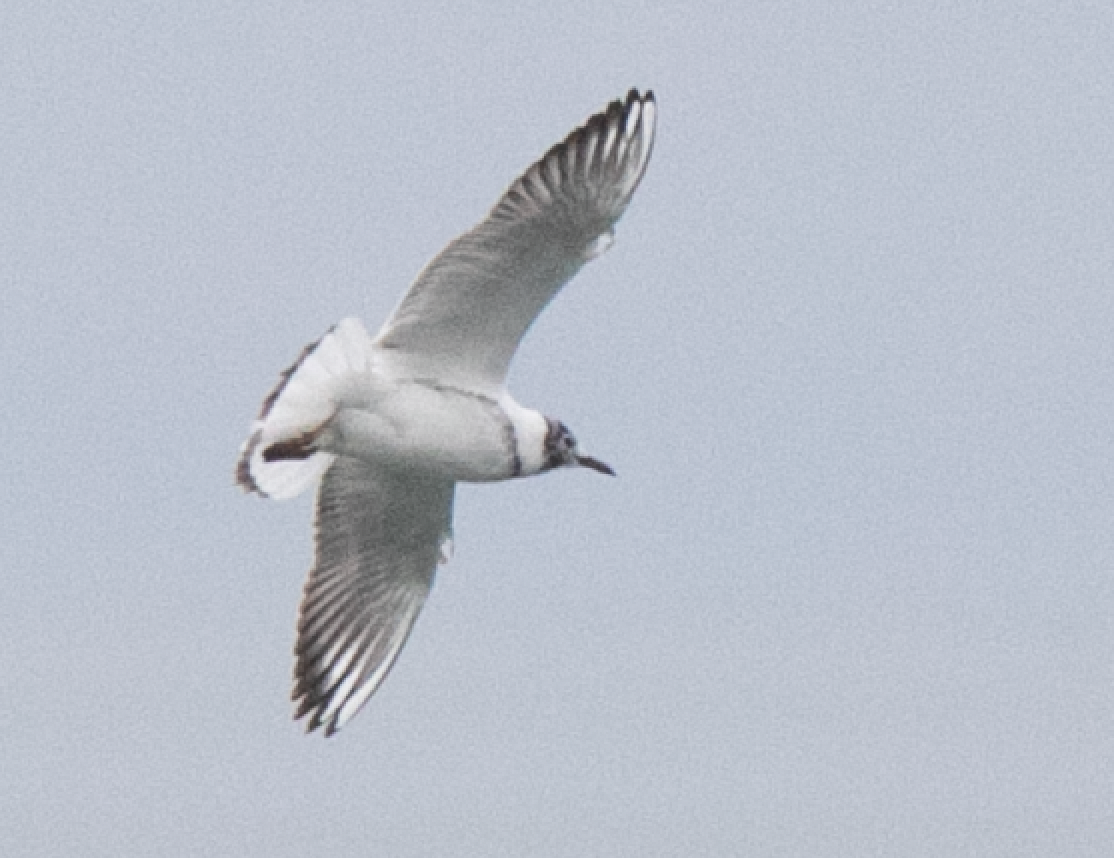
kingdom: Animalia
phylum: Chordata
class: Aves
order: Charadriiformes
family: Laridae
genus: Chroicocephalus
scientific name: Chroicocephalus ridibundus
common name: Black-headed gull
